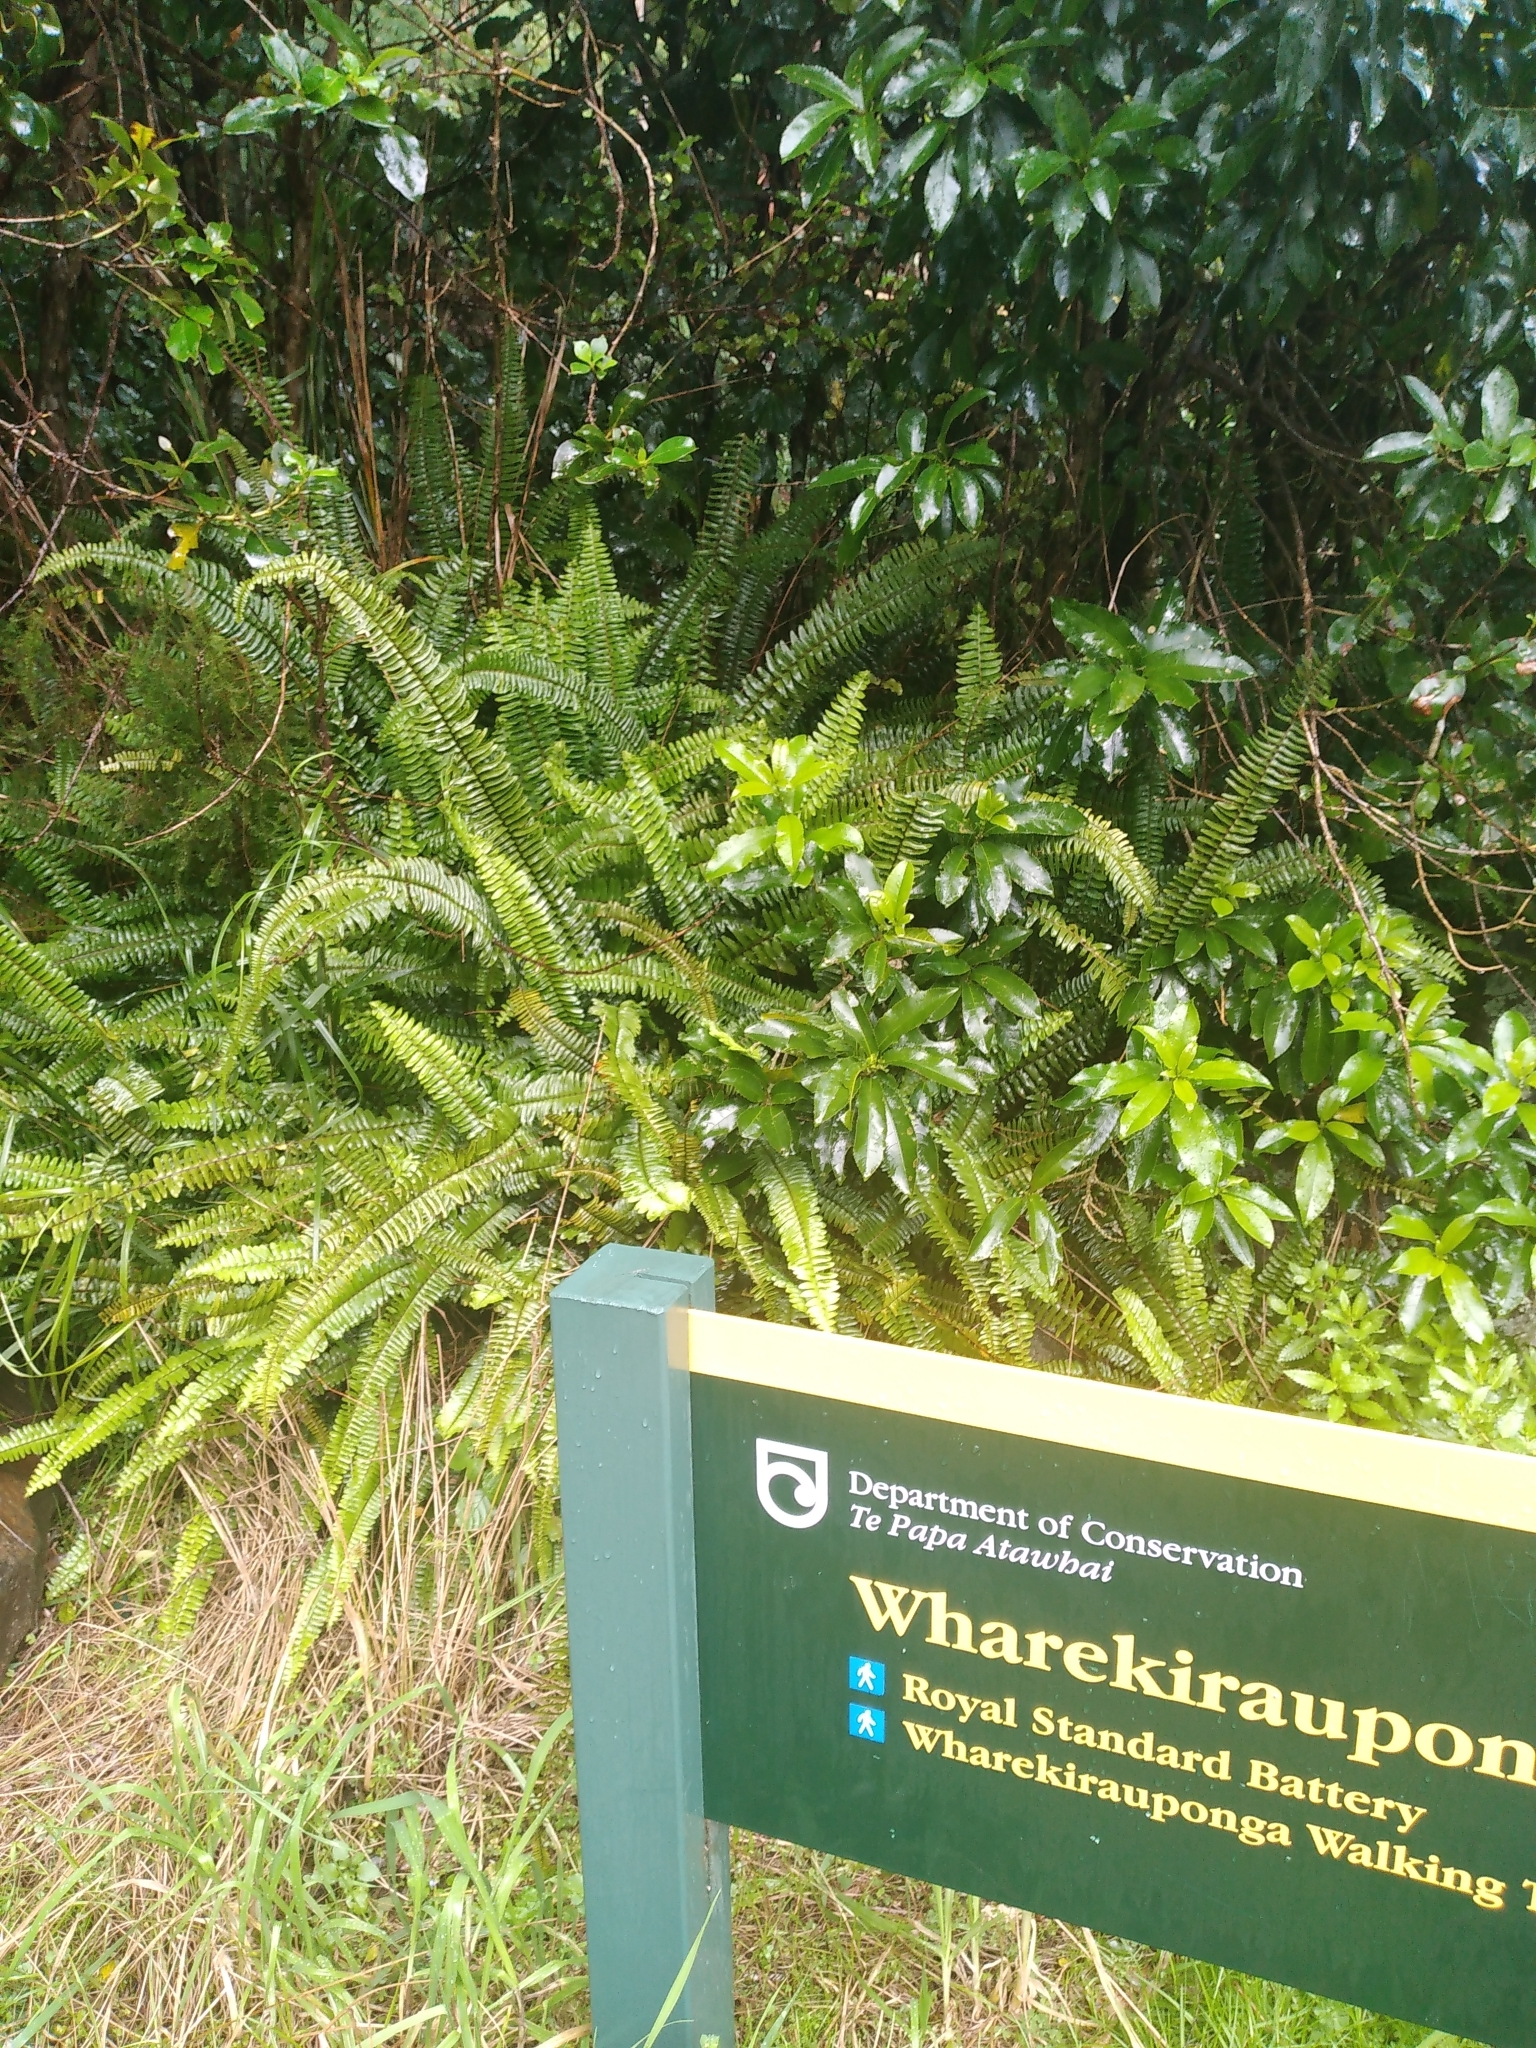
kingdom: Plantae
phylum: Tracheophyta
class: Polypodiopsida
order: Polypodiales
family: Nephrolepidaceae
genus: Nephrolepis
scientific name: Nephrolepis cordifolia
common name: Narrow swordfern
